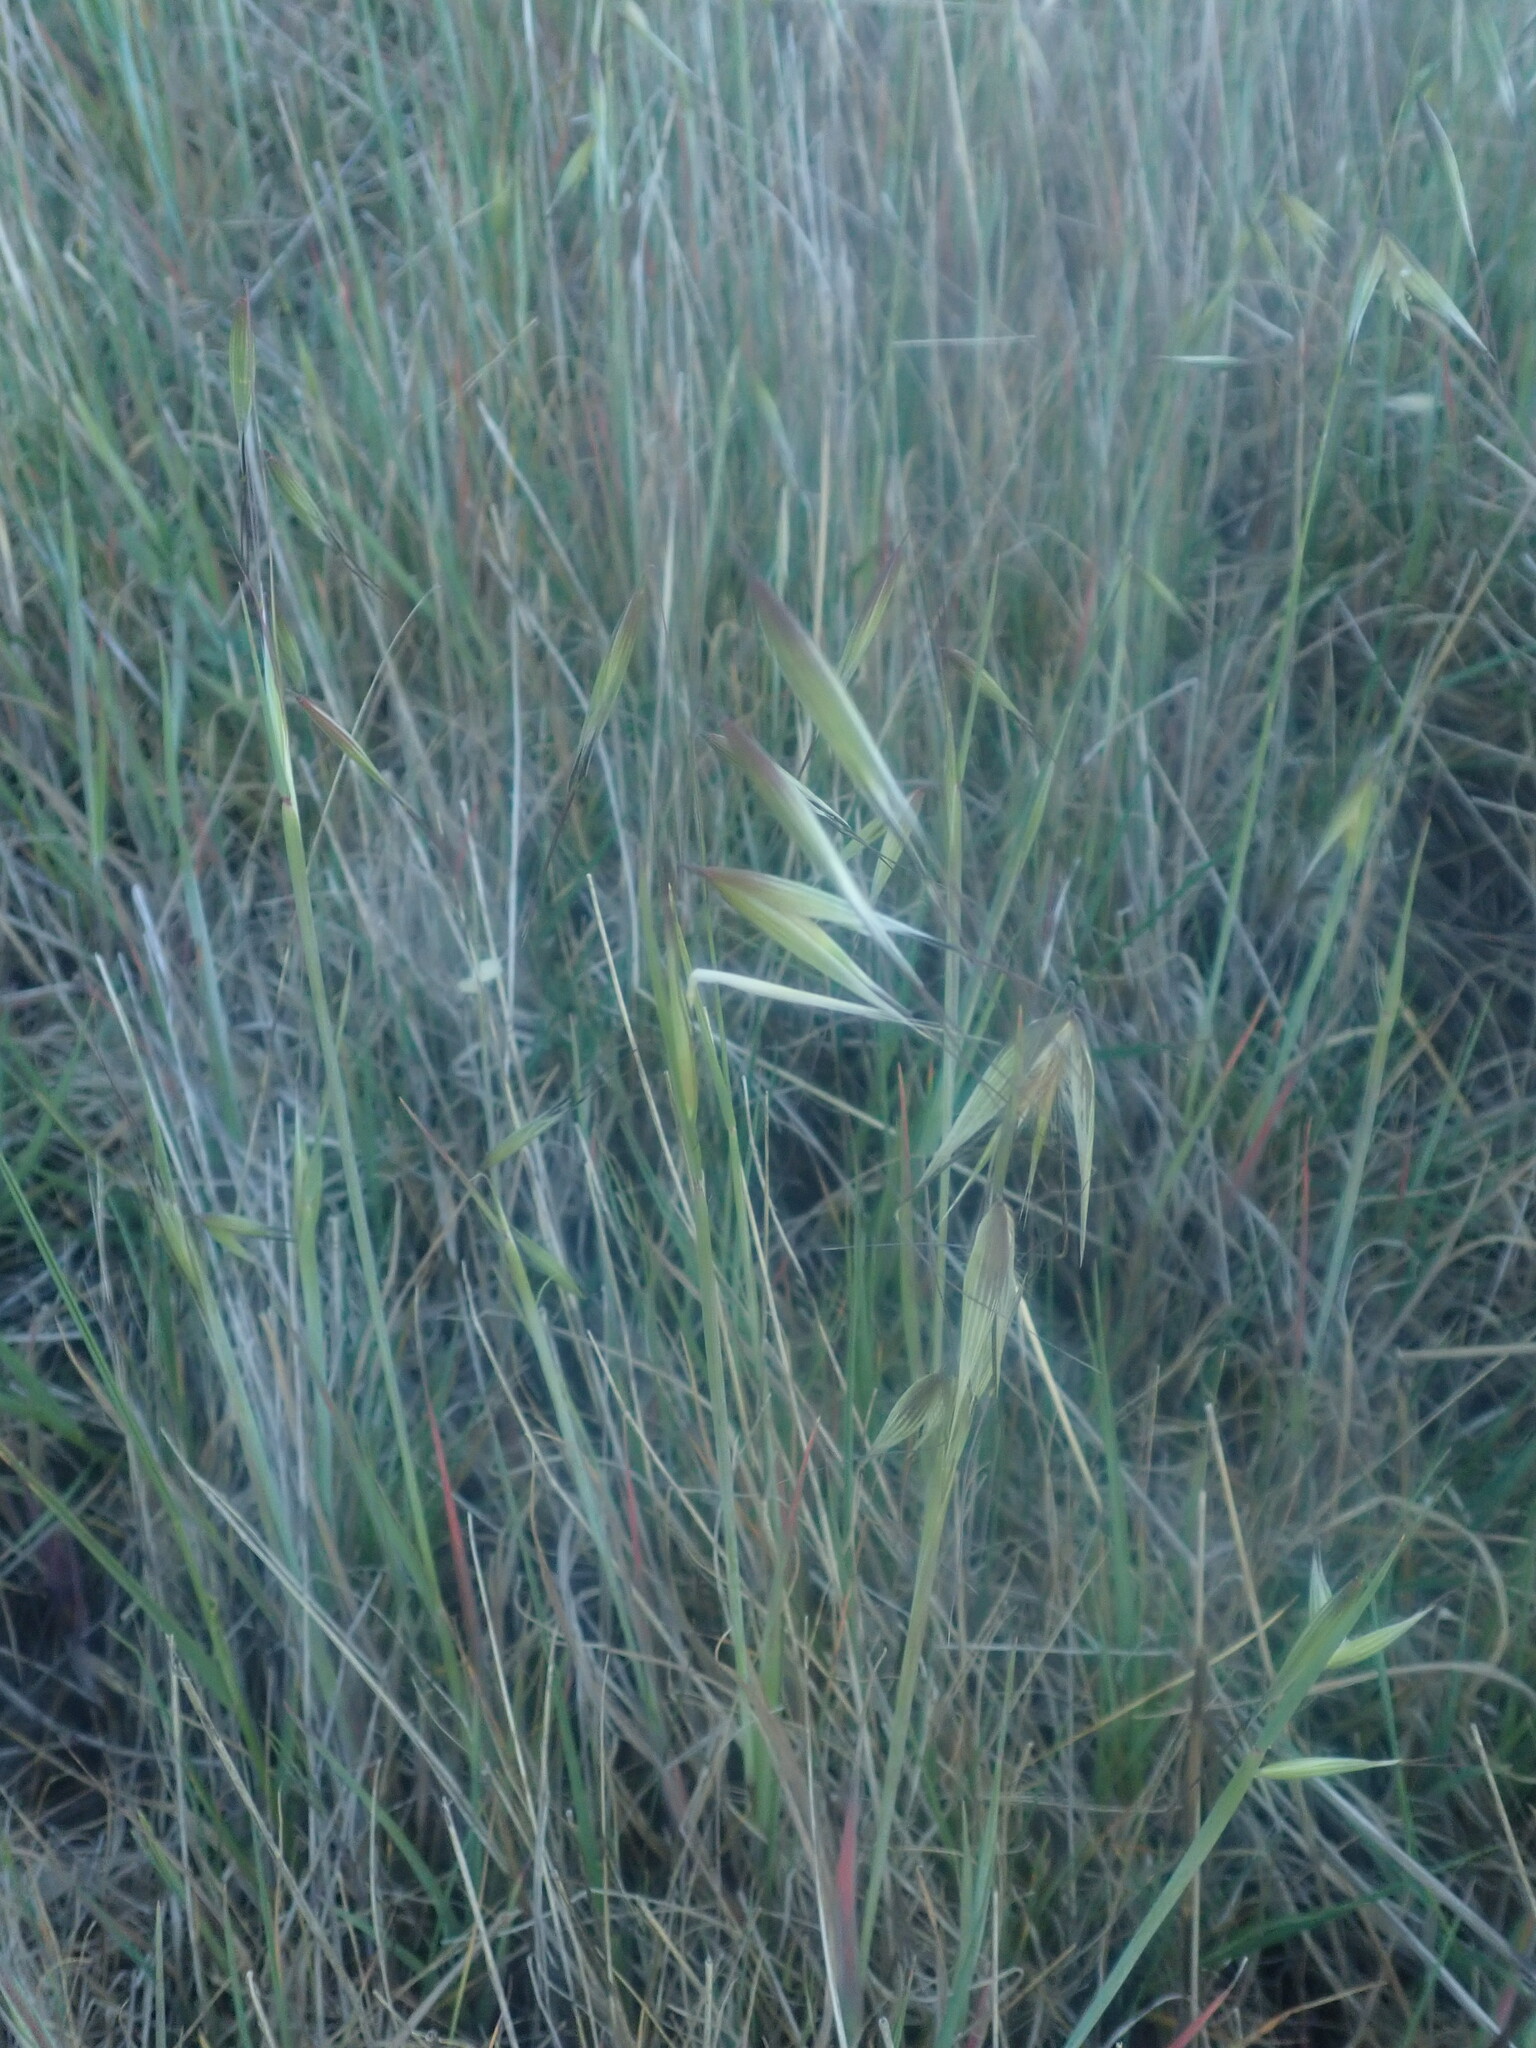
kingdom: Plantae
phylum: Tracheophyta
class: Liliopsida
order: Poales
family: Poaceae
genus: Avena
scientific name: Avena fatua
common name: Wild oat
